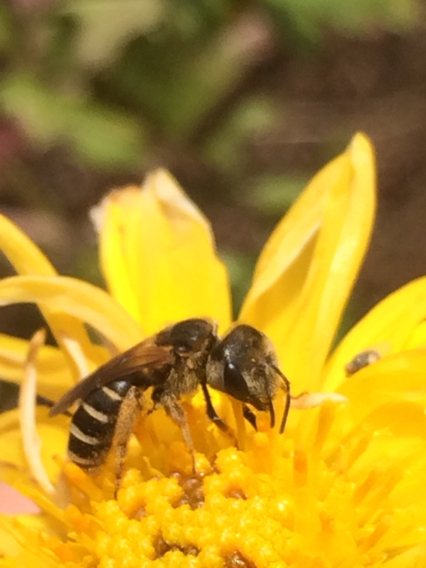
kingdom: Animalia
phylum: Arthropoda
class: Insecta
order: Hymenoptera
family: Halictidae
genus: Halictus
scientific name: Halictus ligatus
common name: Ligated furrow bee
